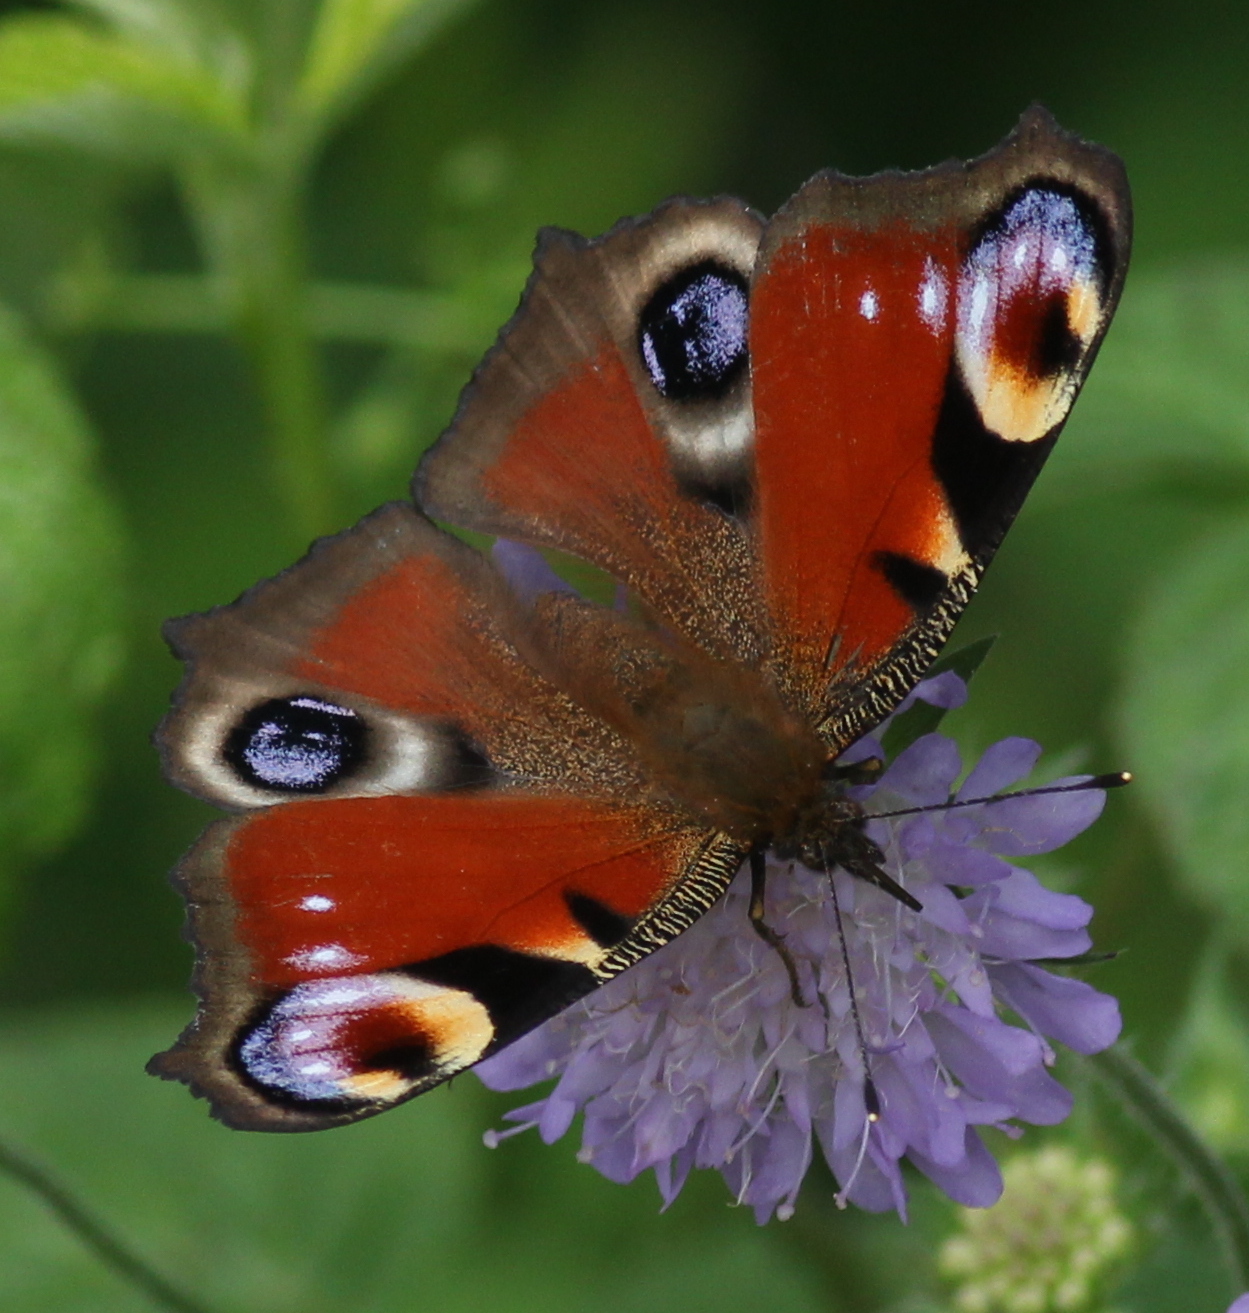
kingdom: Animalia
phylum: Arthropoda
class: Insecta
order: Lepidoptera
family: Nymphalidae
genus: Aglais
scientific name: Aglais io
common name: Peacock
